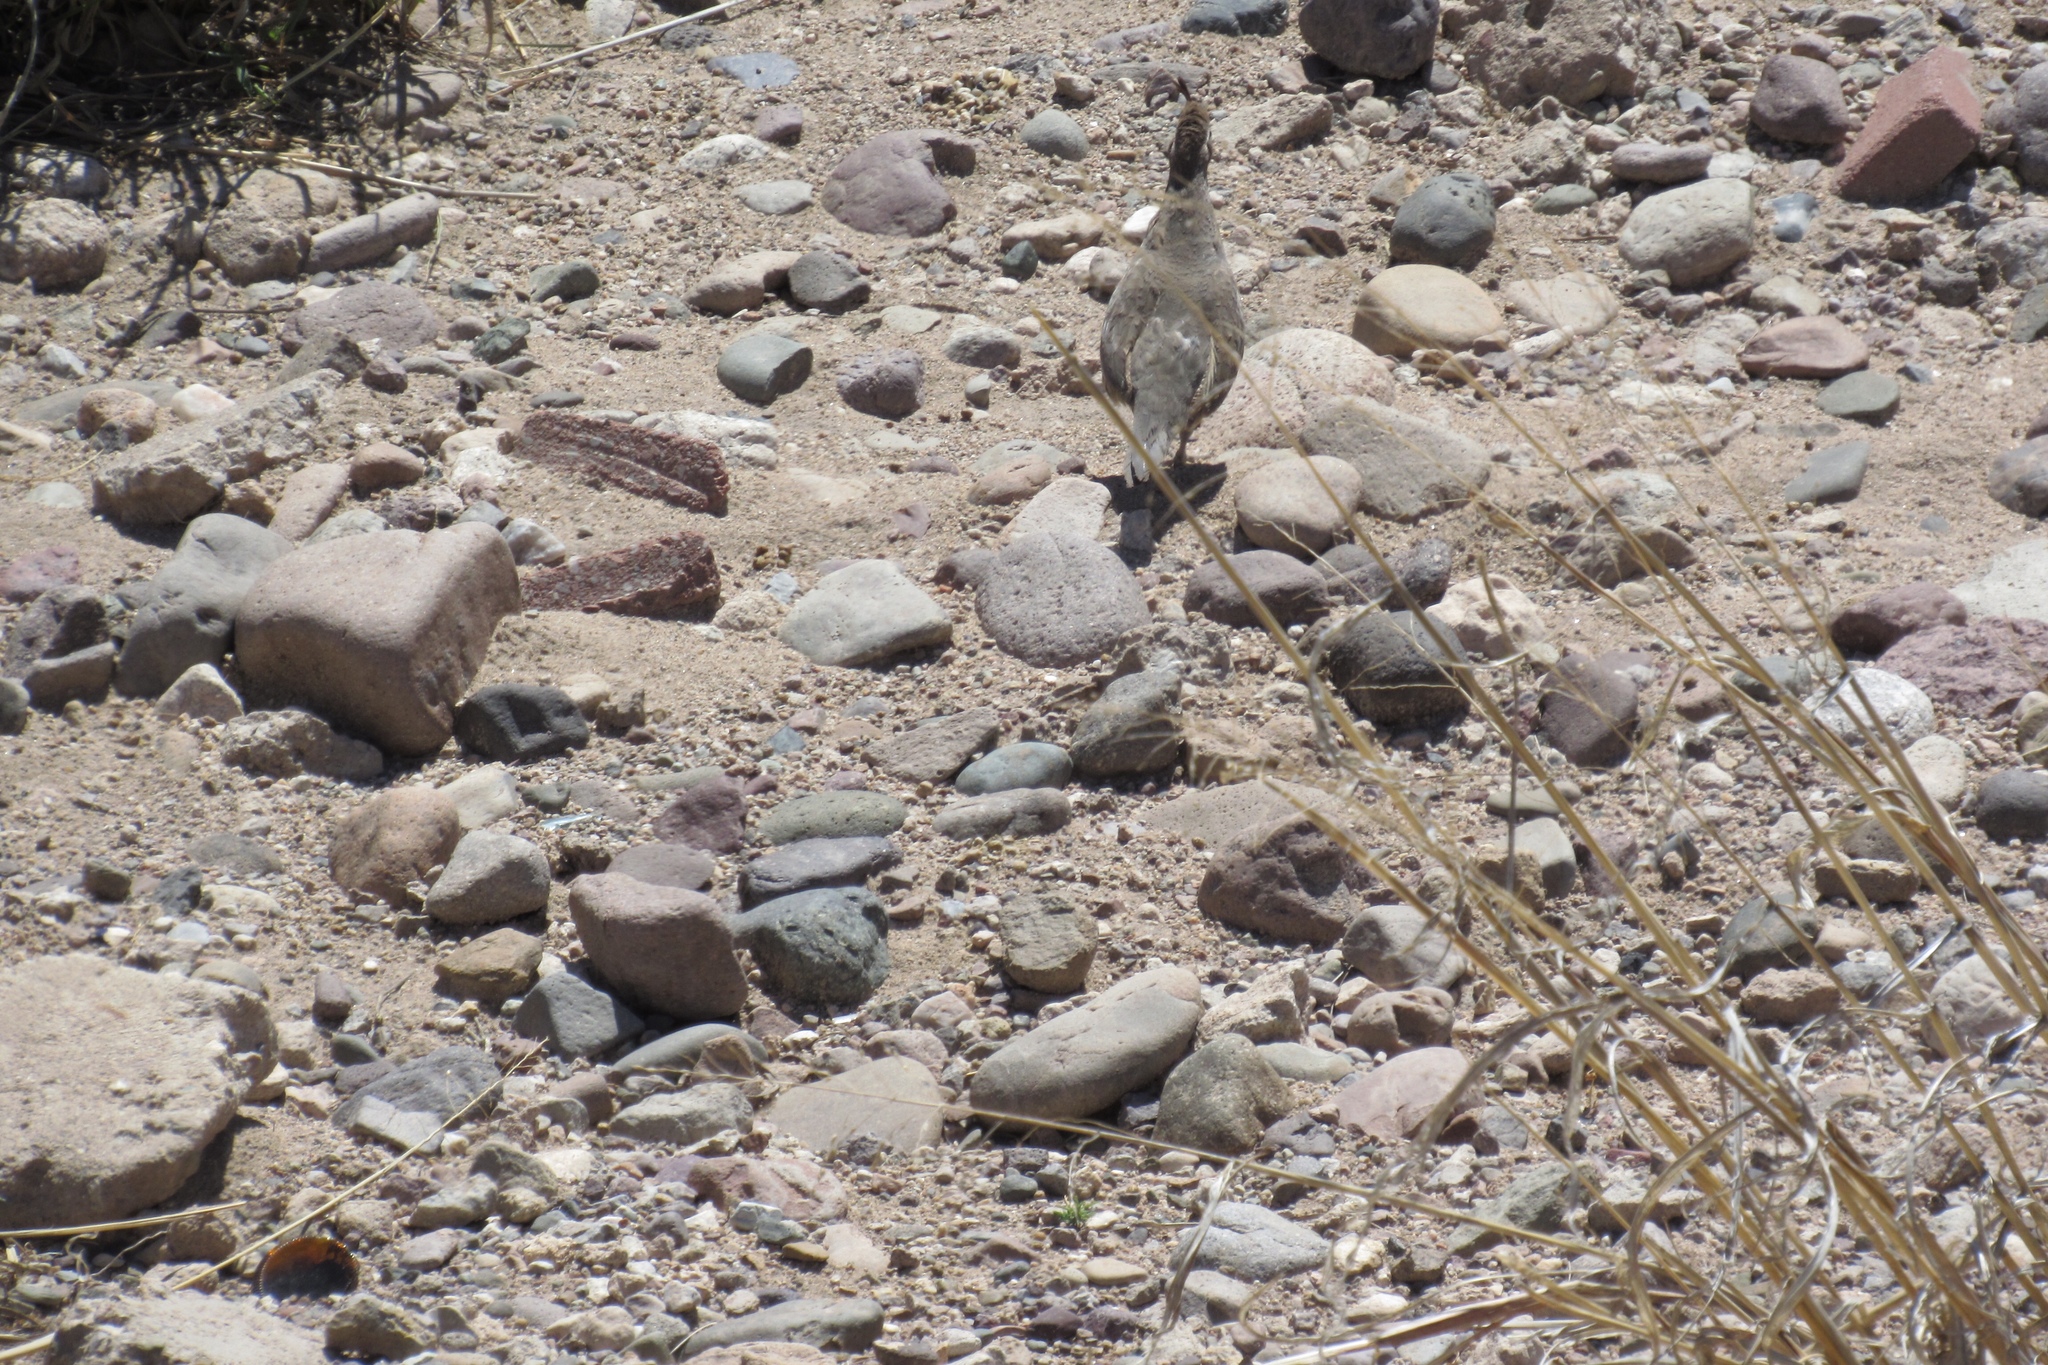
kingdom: Animalia
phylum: Chordata
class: Aves
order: Galliformes
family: Odontophoridae
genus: Callipepla
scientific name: Callipepla gambelii
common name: Gambel's quail
